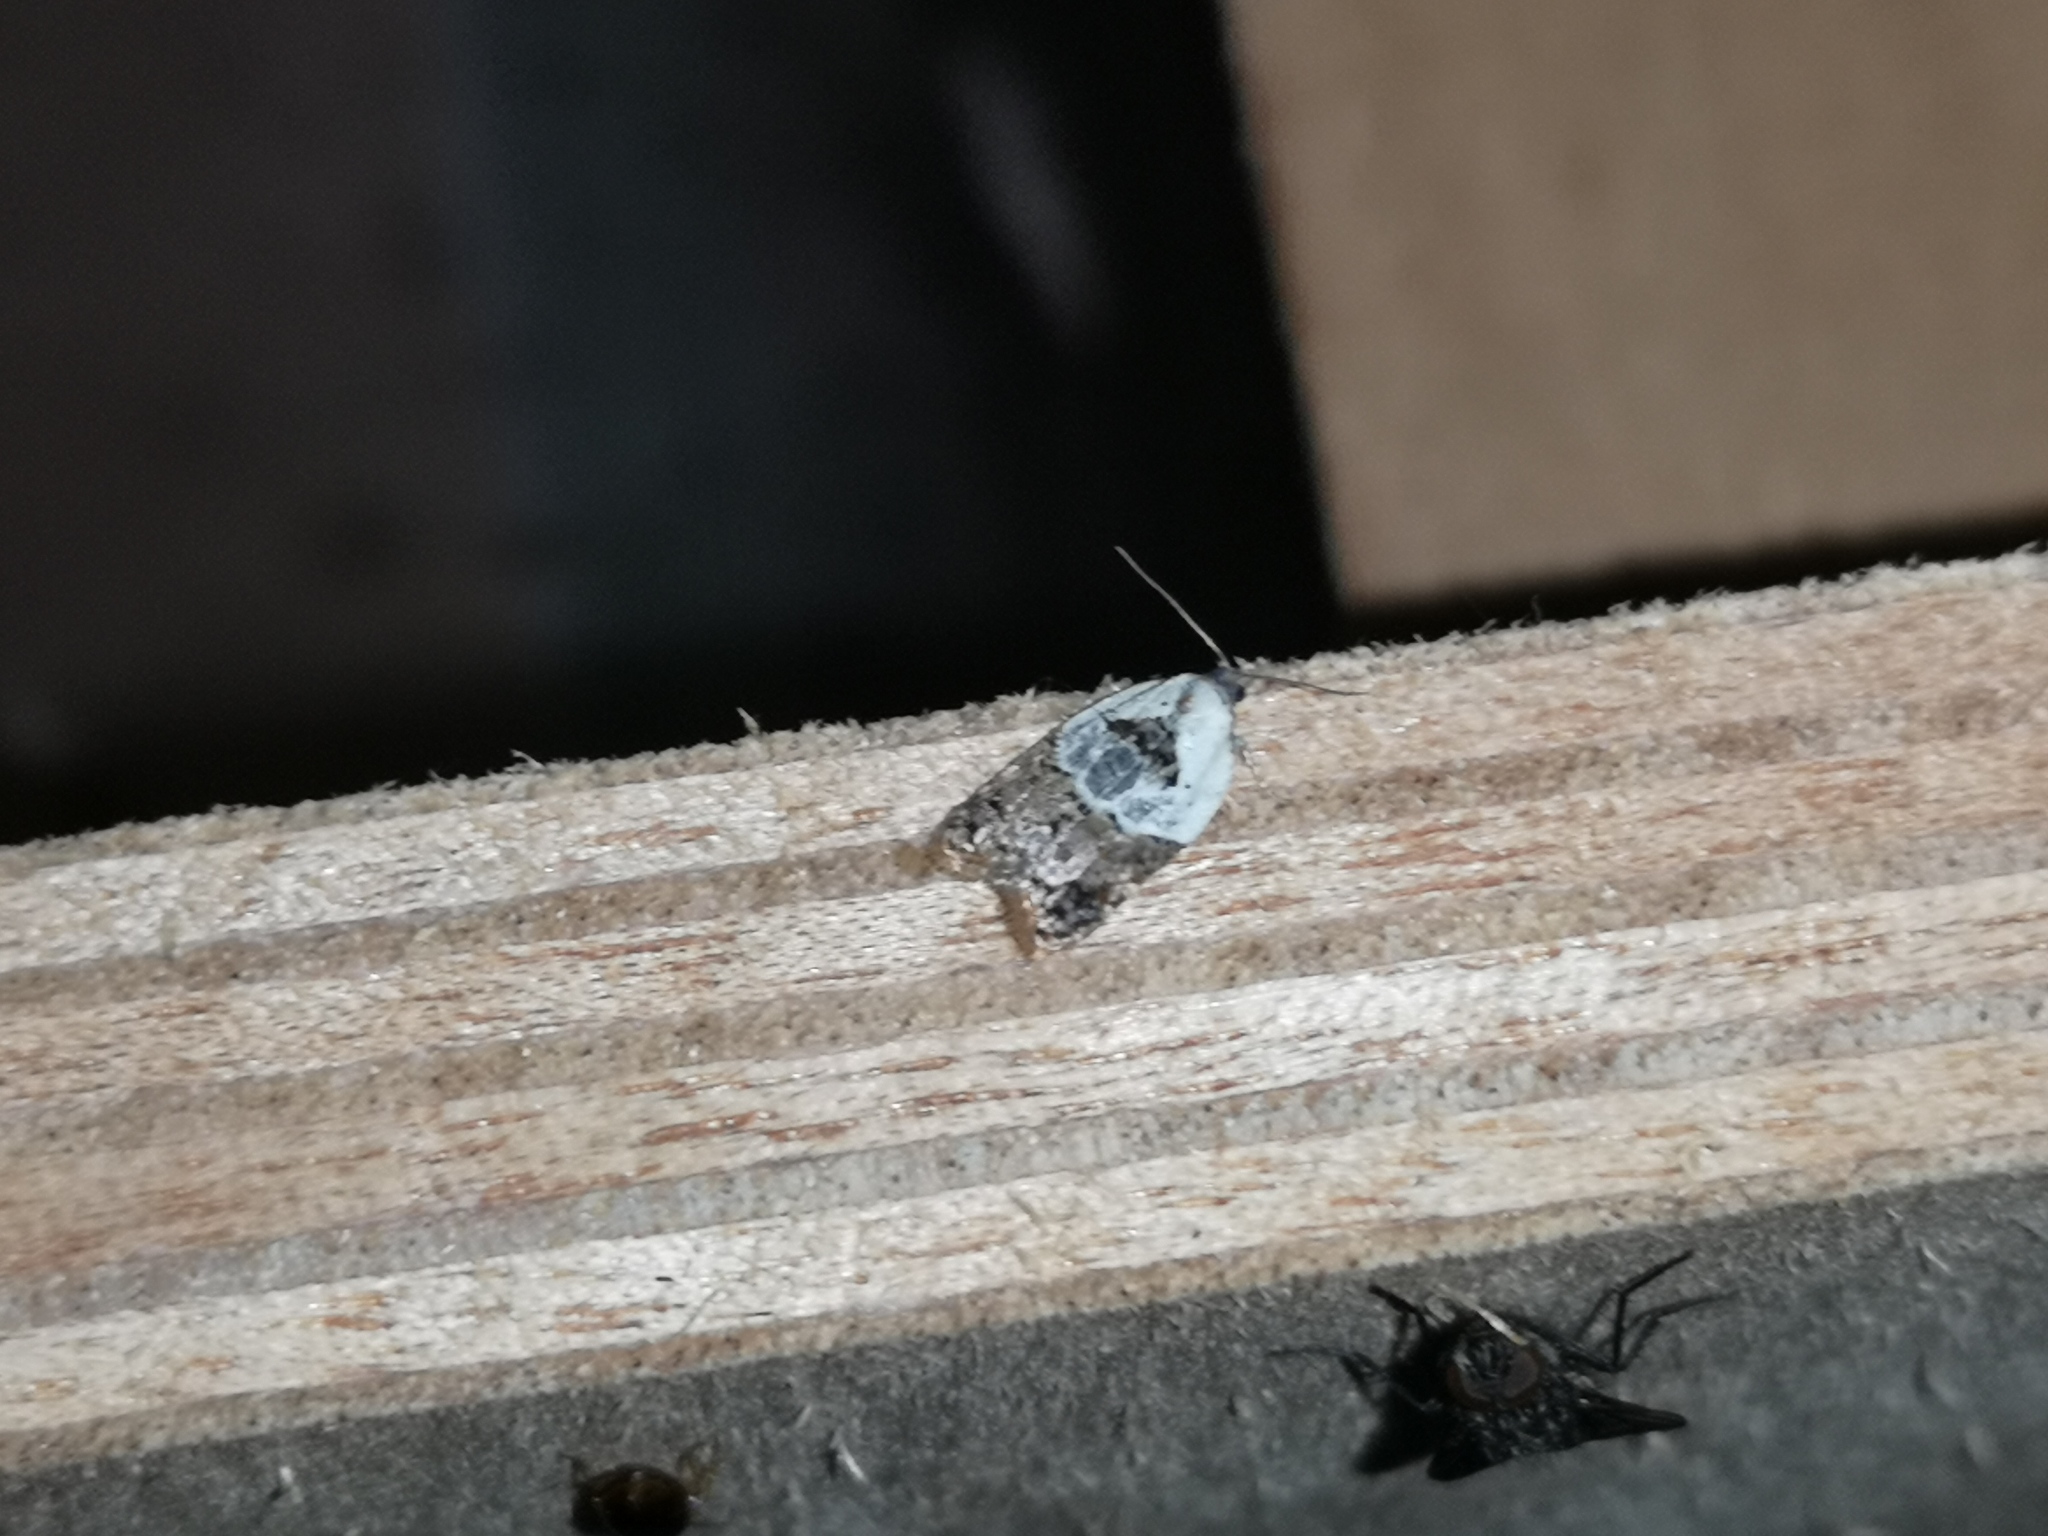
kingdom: Animalia
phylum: Arthropoda
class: Insecta
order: Lepidoptera
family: Tortricidae
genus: Acleris
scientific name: Acleris variegana
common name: Garden rose tortrix
